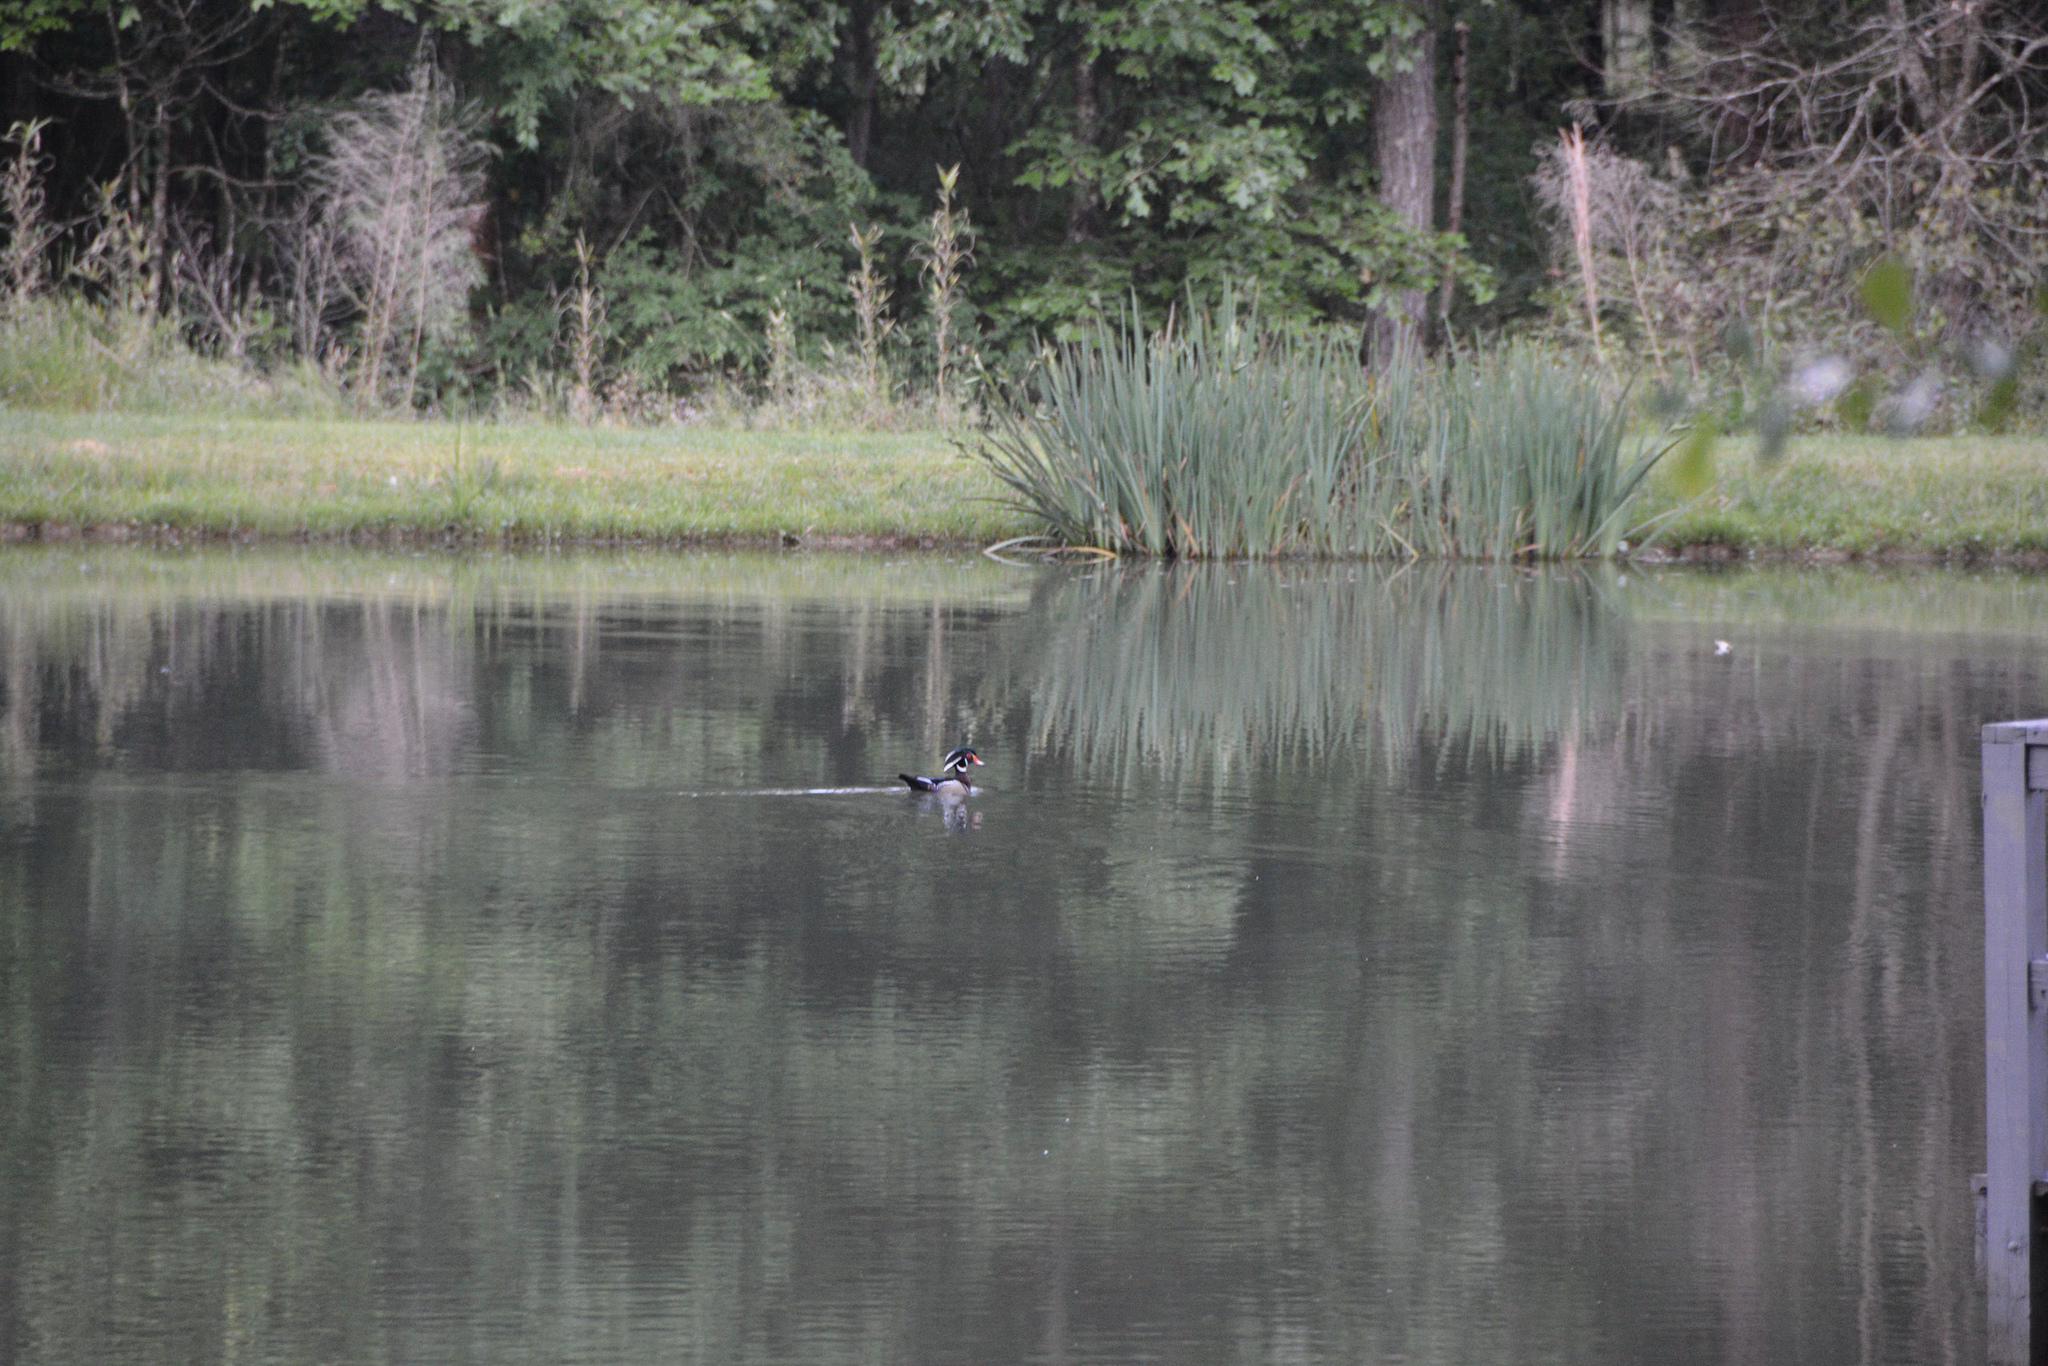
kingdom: Animalia
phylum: Chordata
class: Aves
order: Anseriformes
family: Anatidae
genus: Aix
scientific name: Aix sponsa
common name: Wood duck
